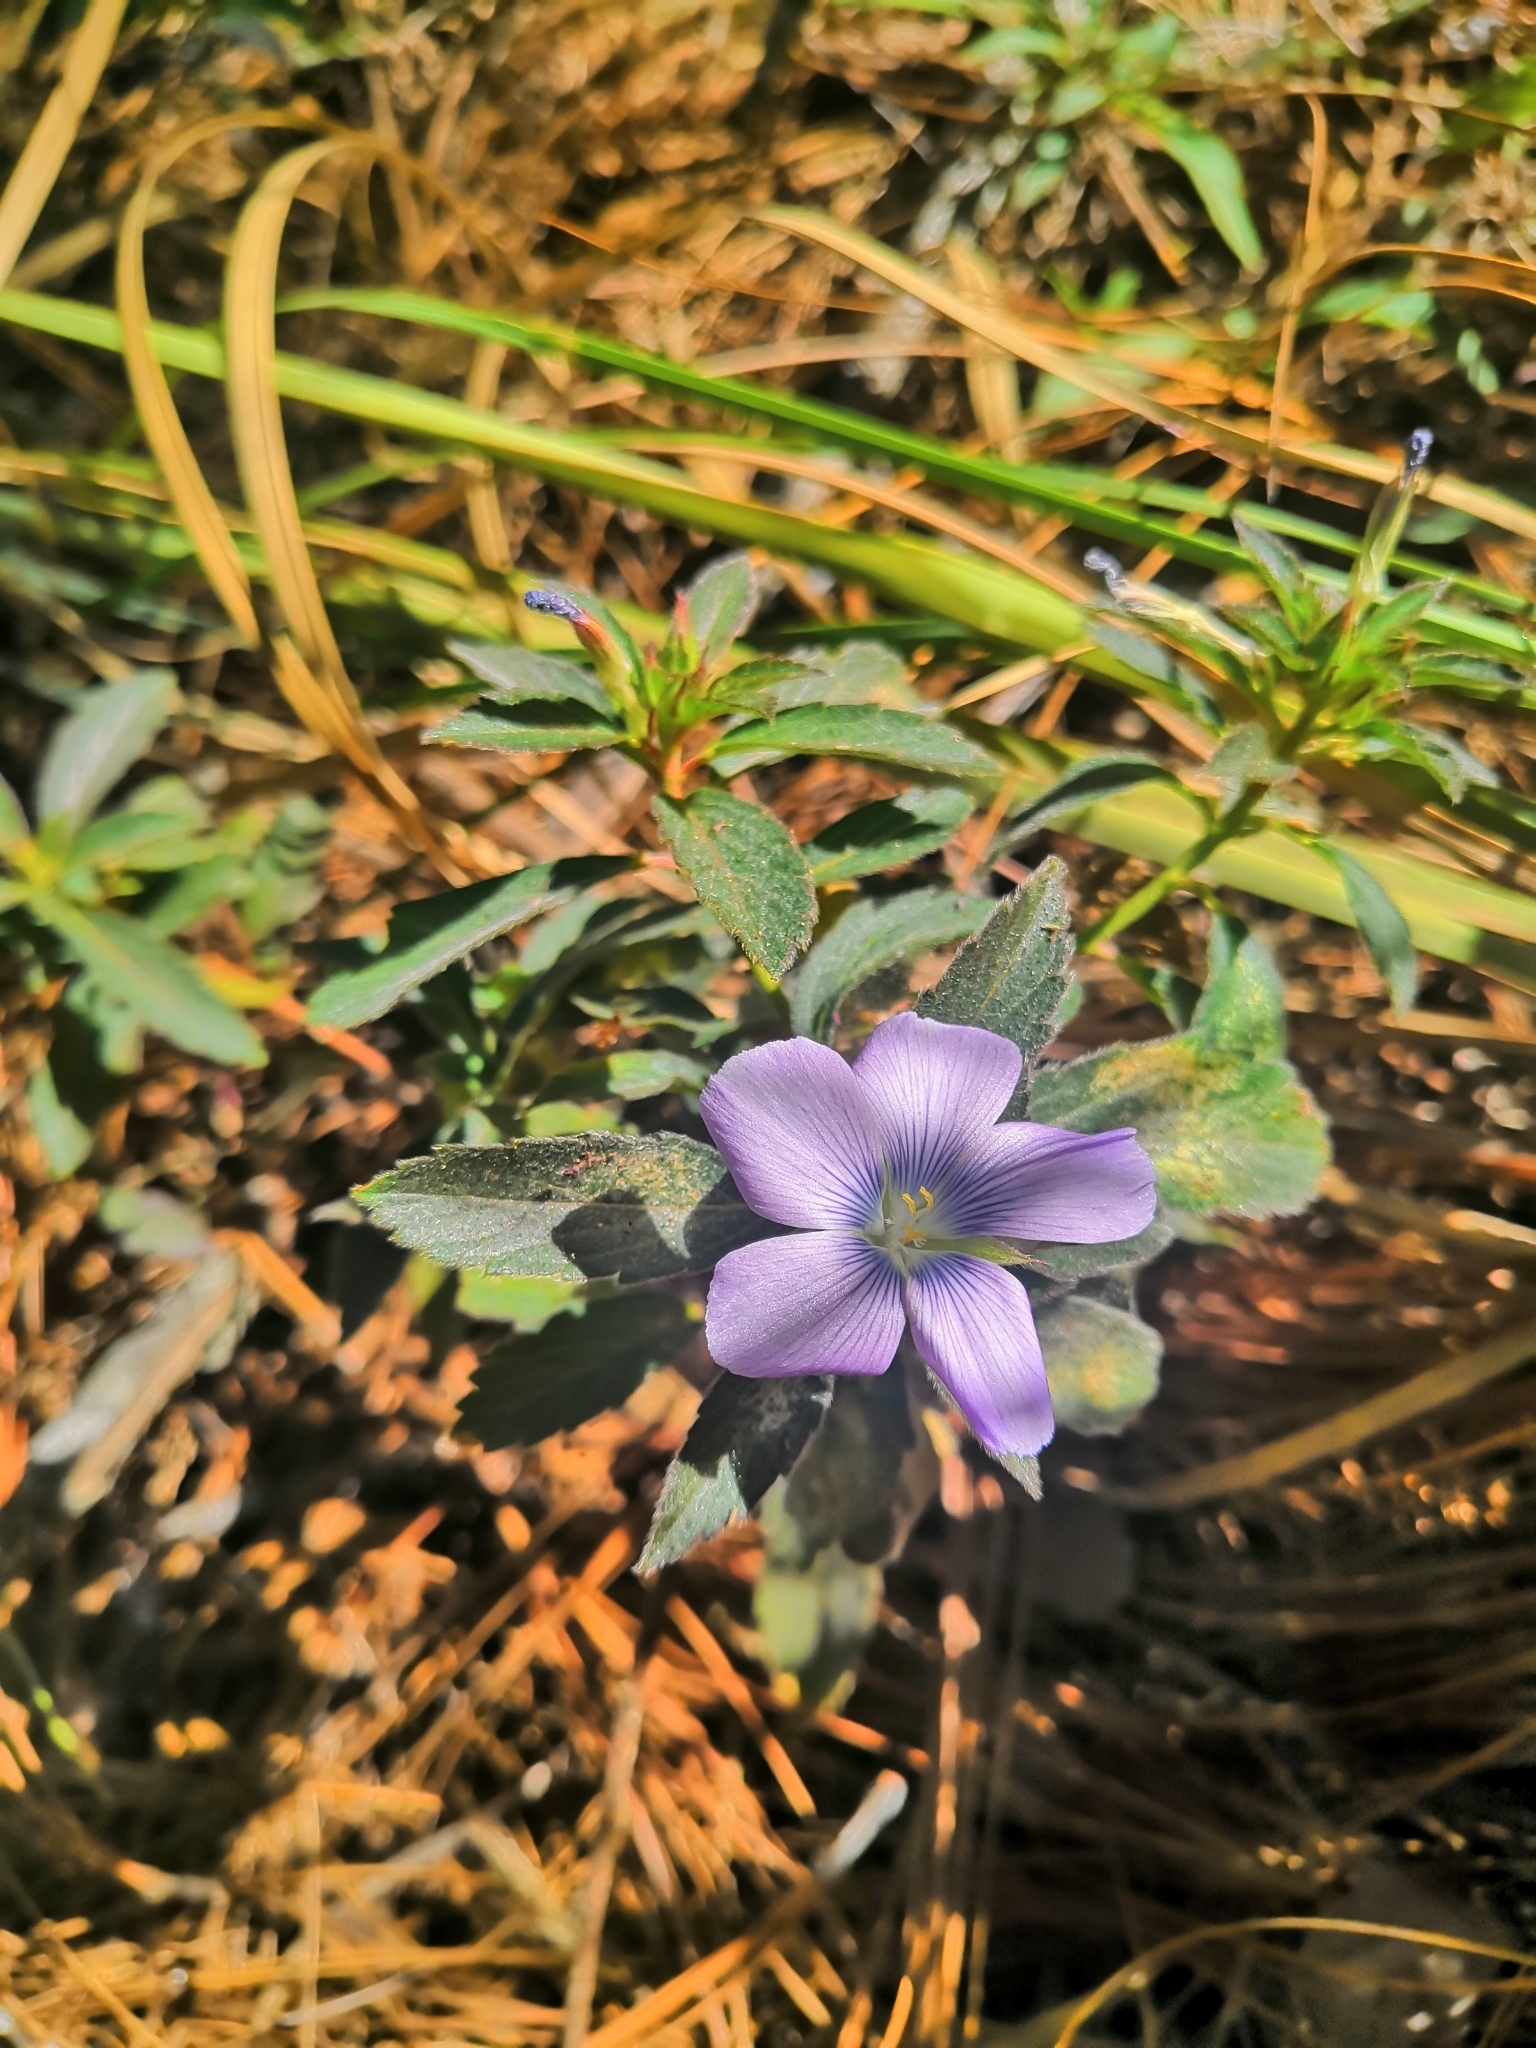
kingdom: Plantae
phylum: Tracheophyta
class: Magnoliopsida
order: Malpighiales
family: Turneraceae
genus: Turnera
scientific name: Turnera coerulea
